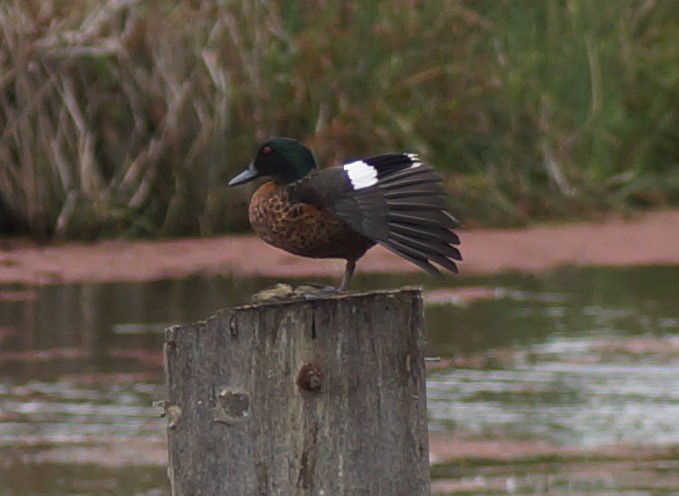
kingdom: Animalia
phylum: Chordata
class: Aves
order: Anseriformes
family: Anatidae
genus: Anas
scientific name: Anas castanea
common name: Chestnut teal
